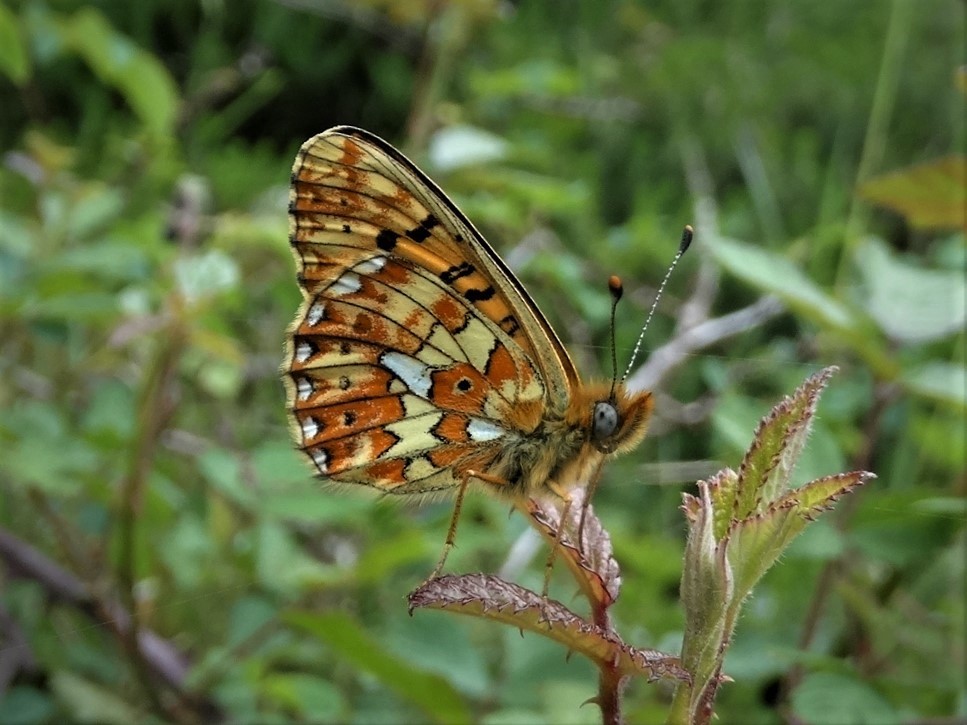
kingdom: Animalia
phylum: Arthropoda
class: Insecta
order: Lepidoptera
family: Nymphalidae
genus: Clossiana
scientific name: Clossiana euphrosyne
